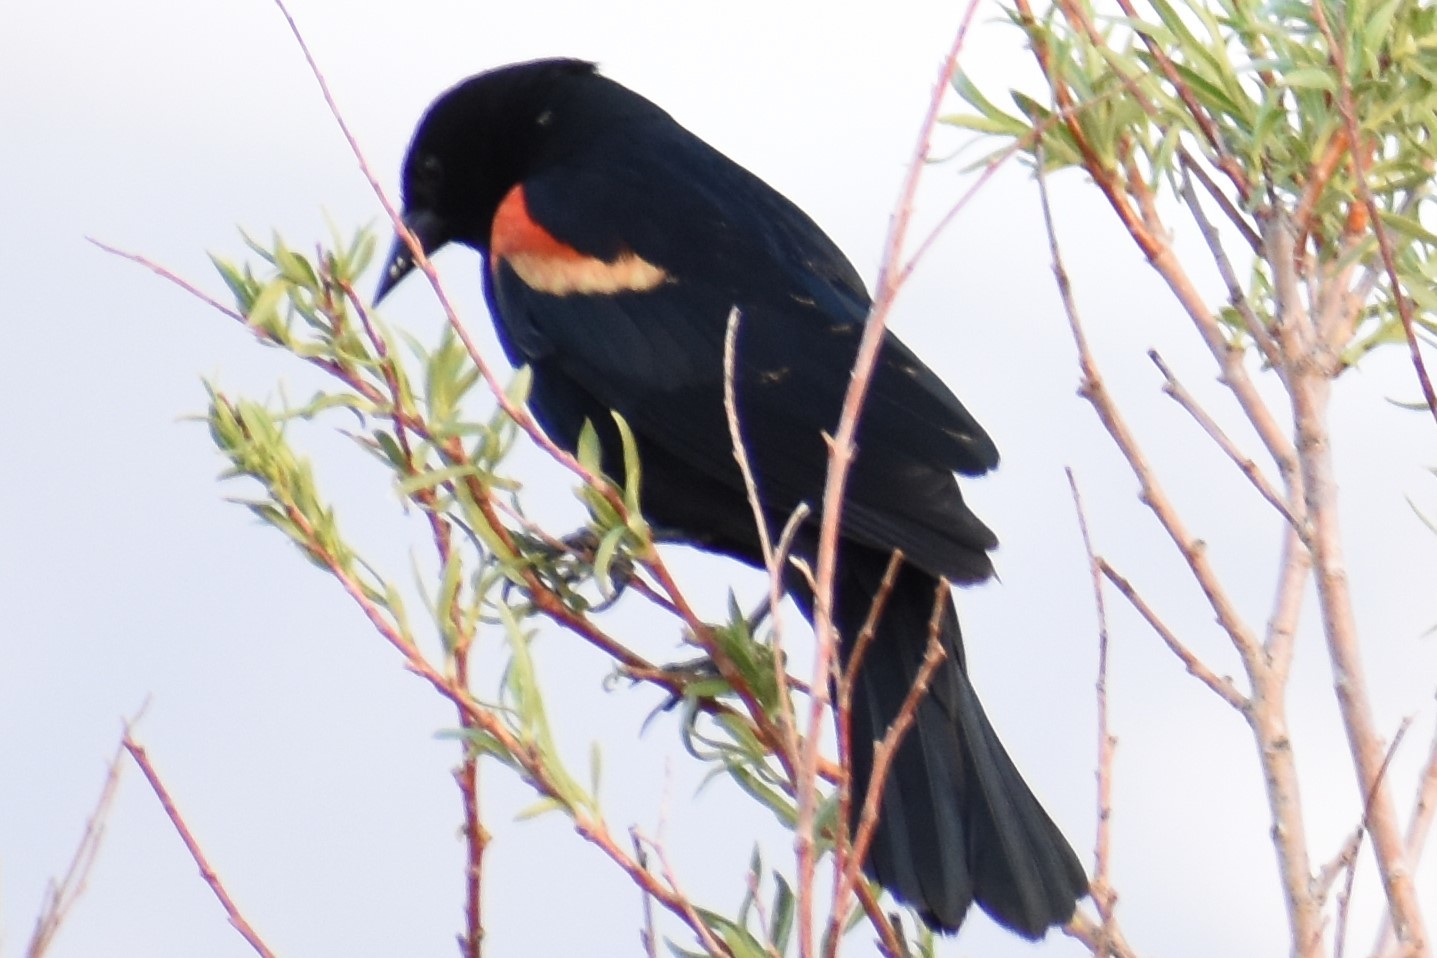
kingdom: Animalia
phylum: Chordata
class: Aves
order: Passeriformes
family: Icteridae
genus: Agelaius
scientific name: Agelaius phoeniceus
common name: Red-winged blackbird
